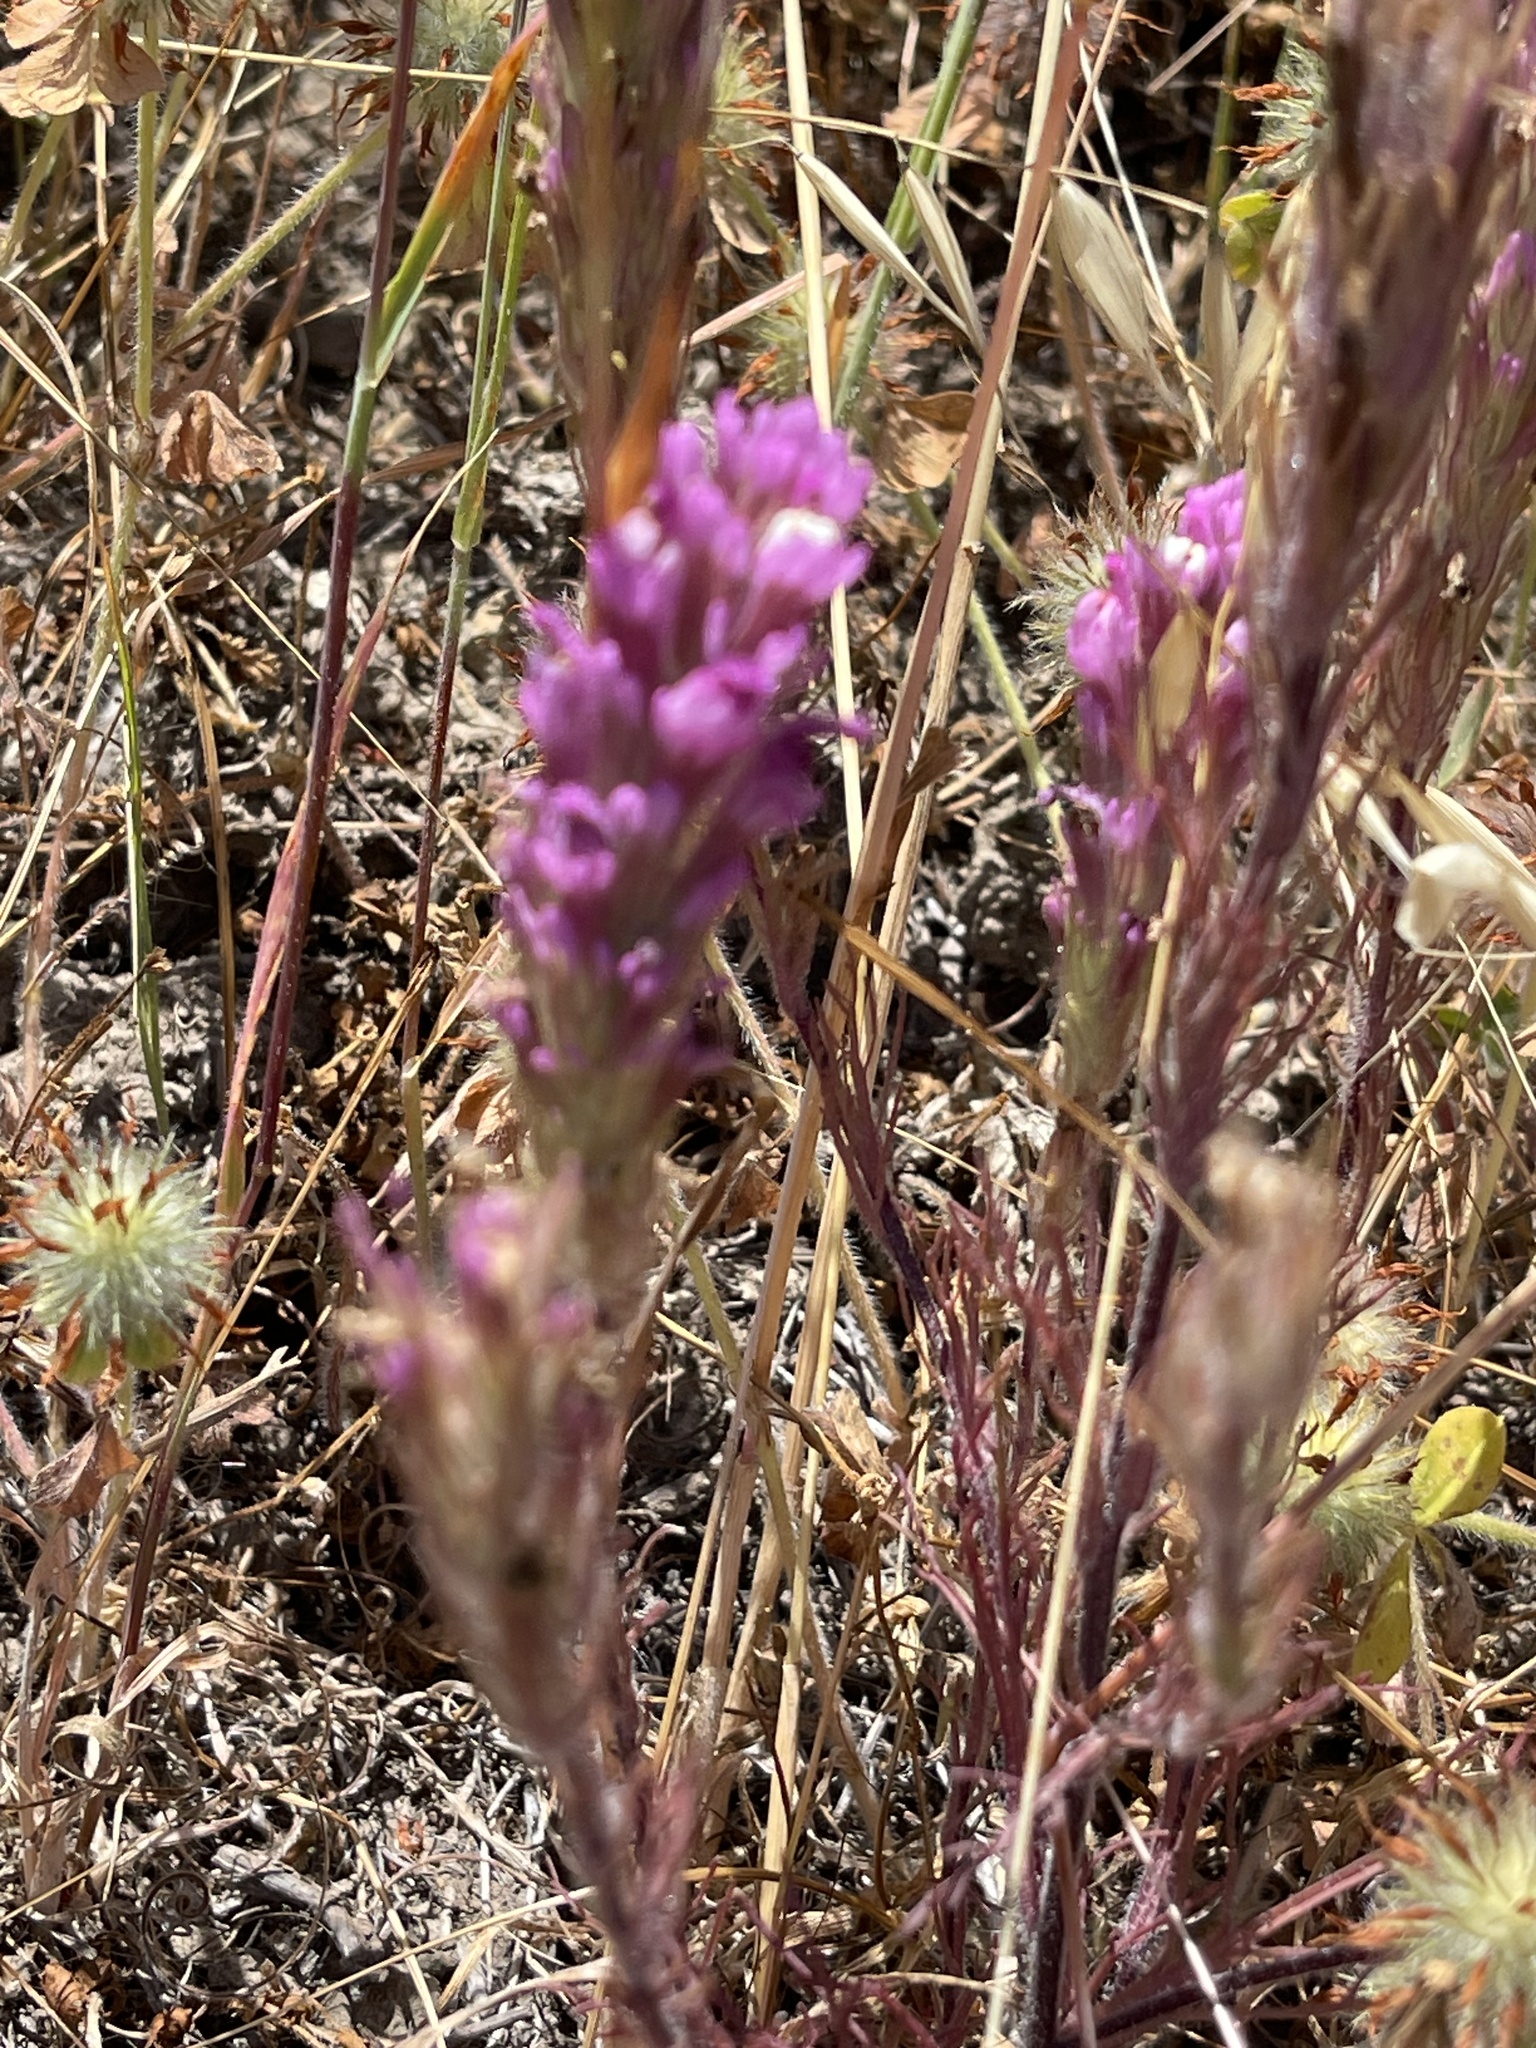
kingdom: Plantae
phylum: Tracheophyta
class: Magnoliopsida
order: Lamiales
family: Orobanchaceae
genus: Castilleja
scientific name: Castilleja exserta
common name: Purple owl-clover
